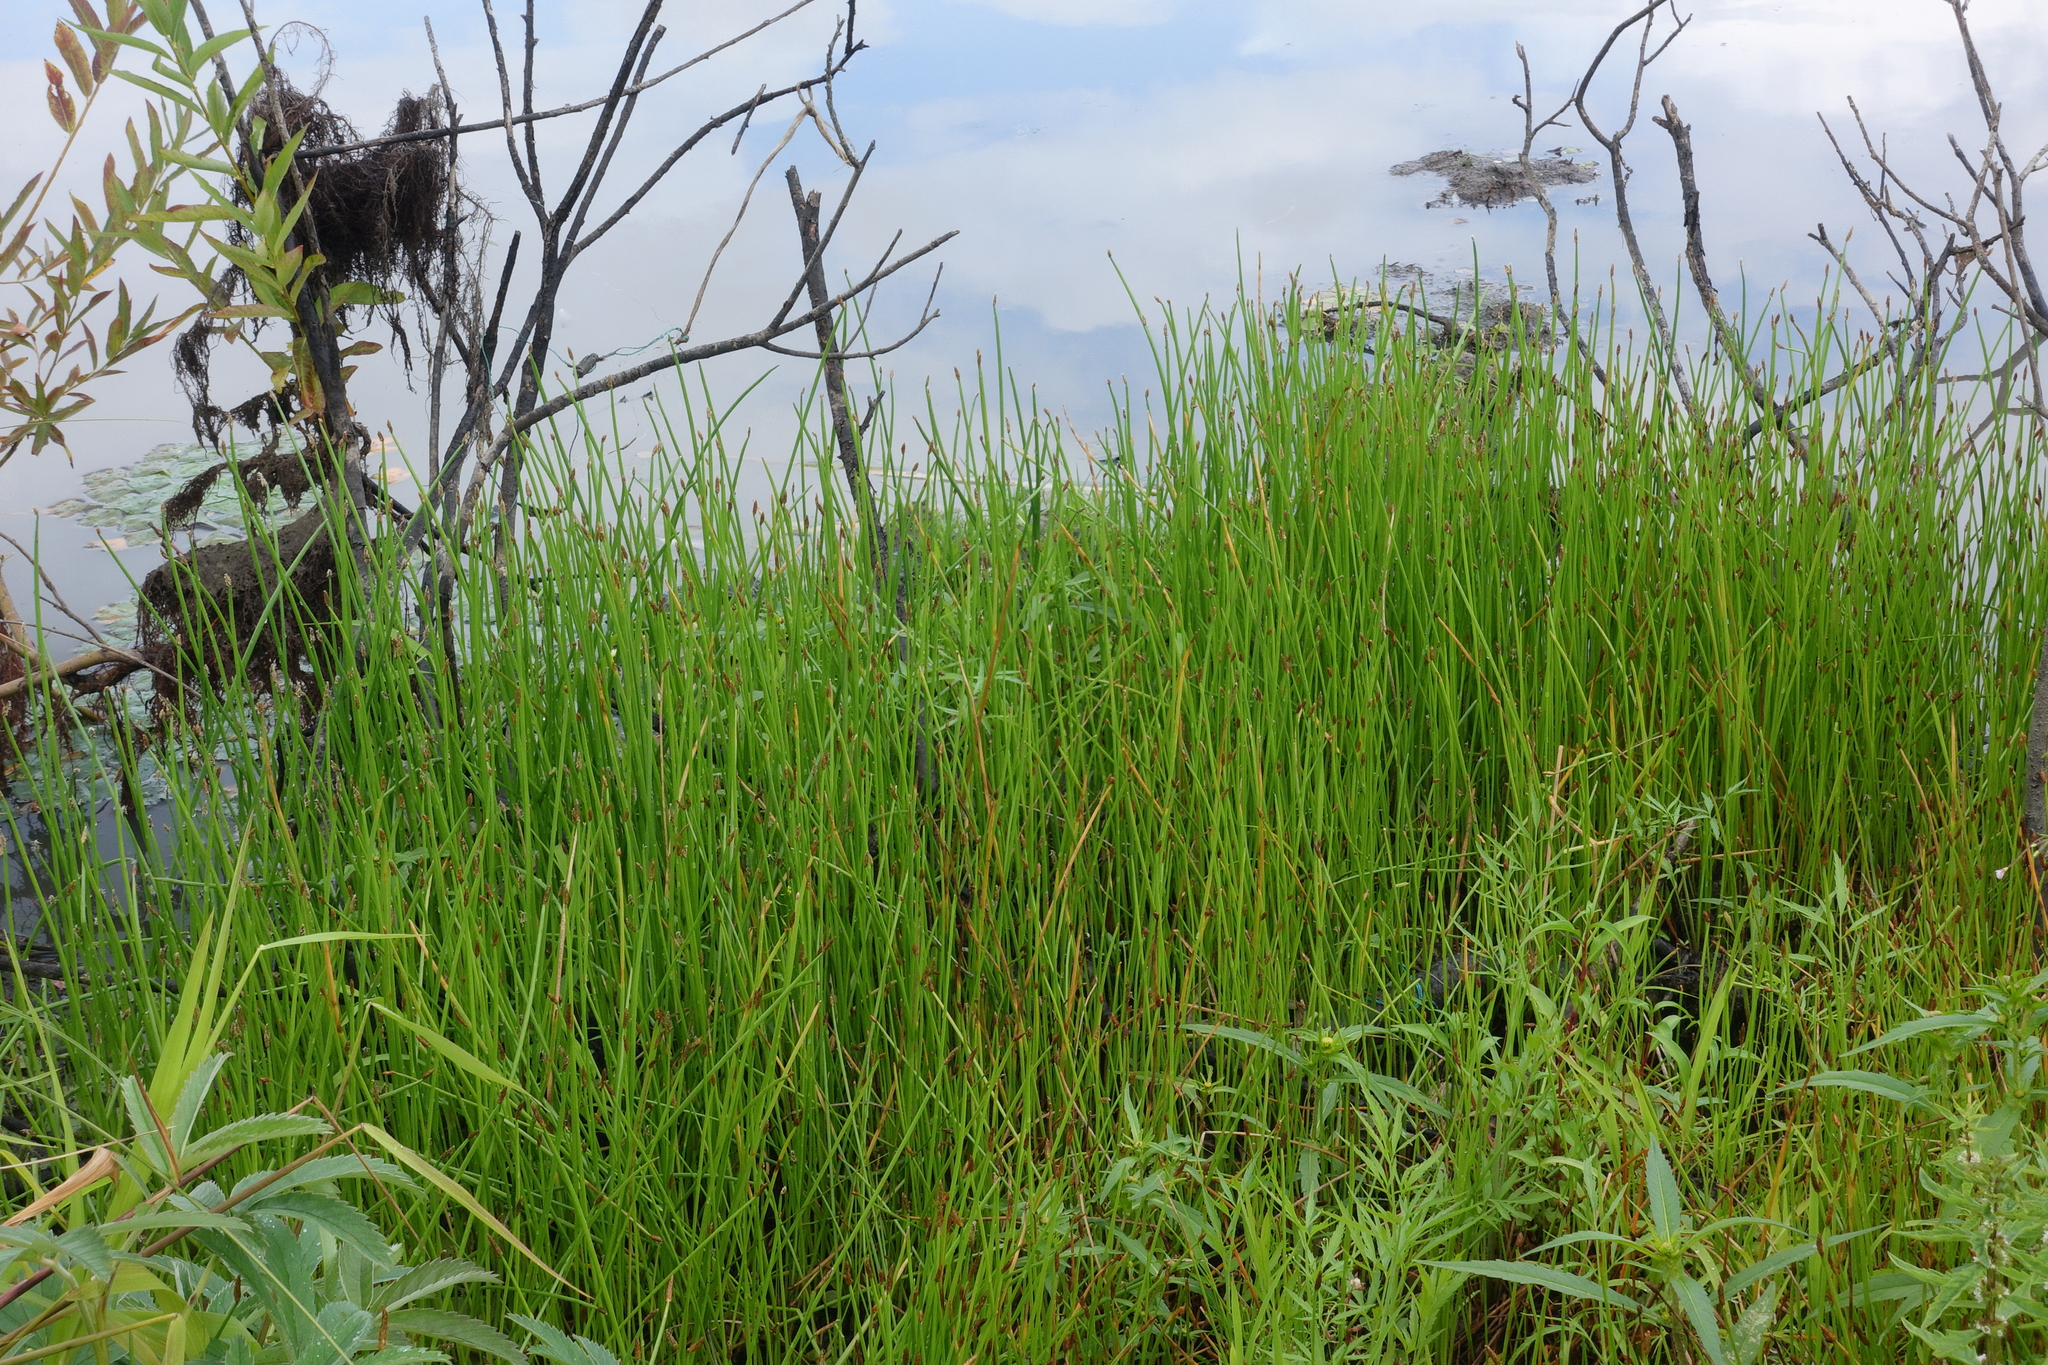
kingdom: Plantae
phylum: Tracheophyta
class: Liliopsida
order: Poales
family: Cyperaceae
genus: Eleocharis
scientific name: Eleocharis palustris
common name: Common spike-rush
